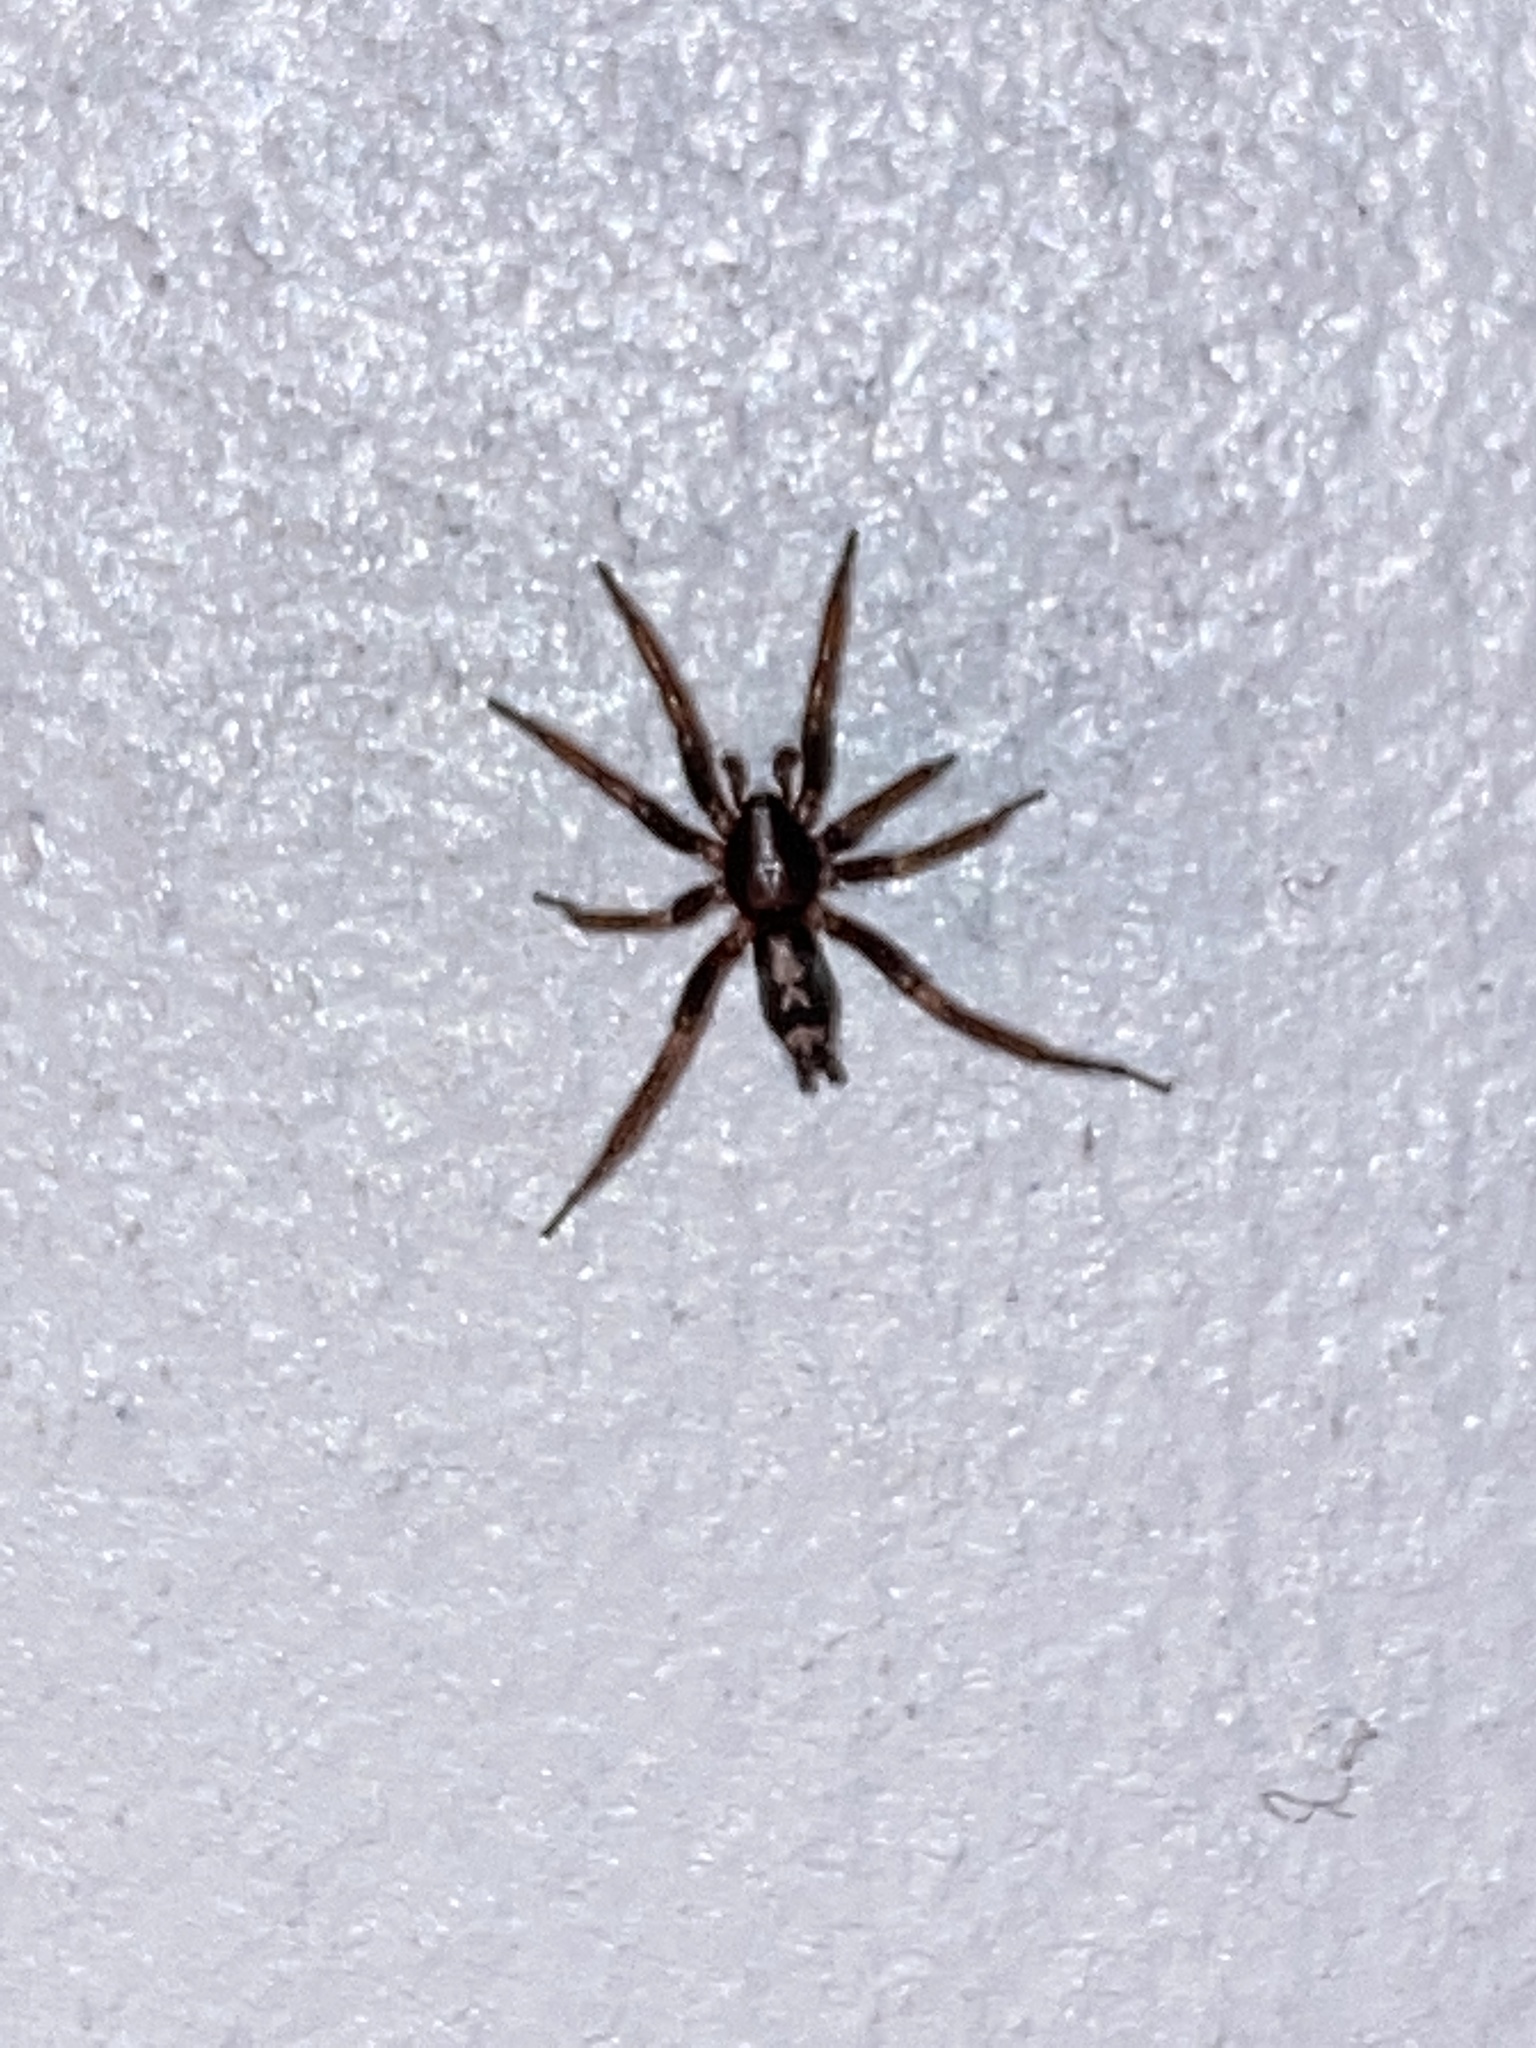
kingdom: Animalia
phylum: Arthropoda
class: Arachnida
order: Araneae
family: Gnaphosidae
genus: Herpyllus
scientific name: Herpyllus ecclesiasticus
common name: Eastern parson spider
